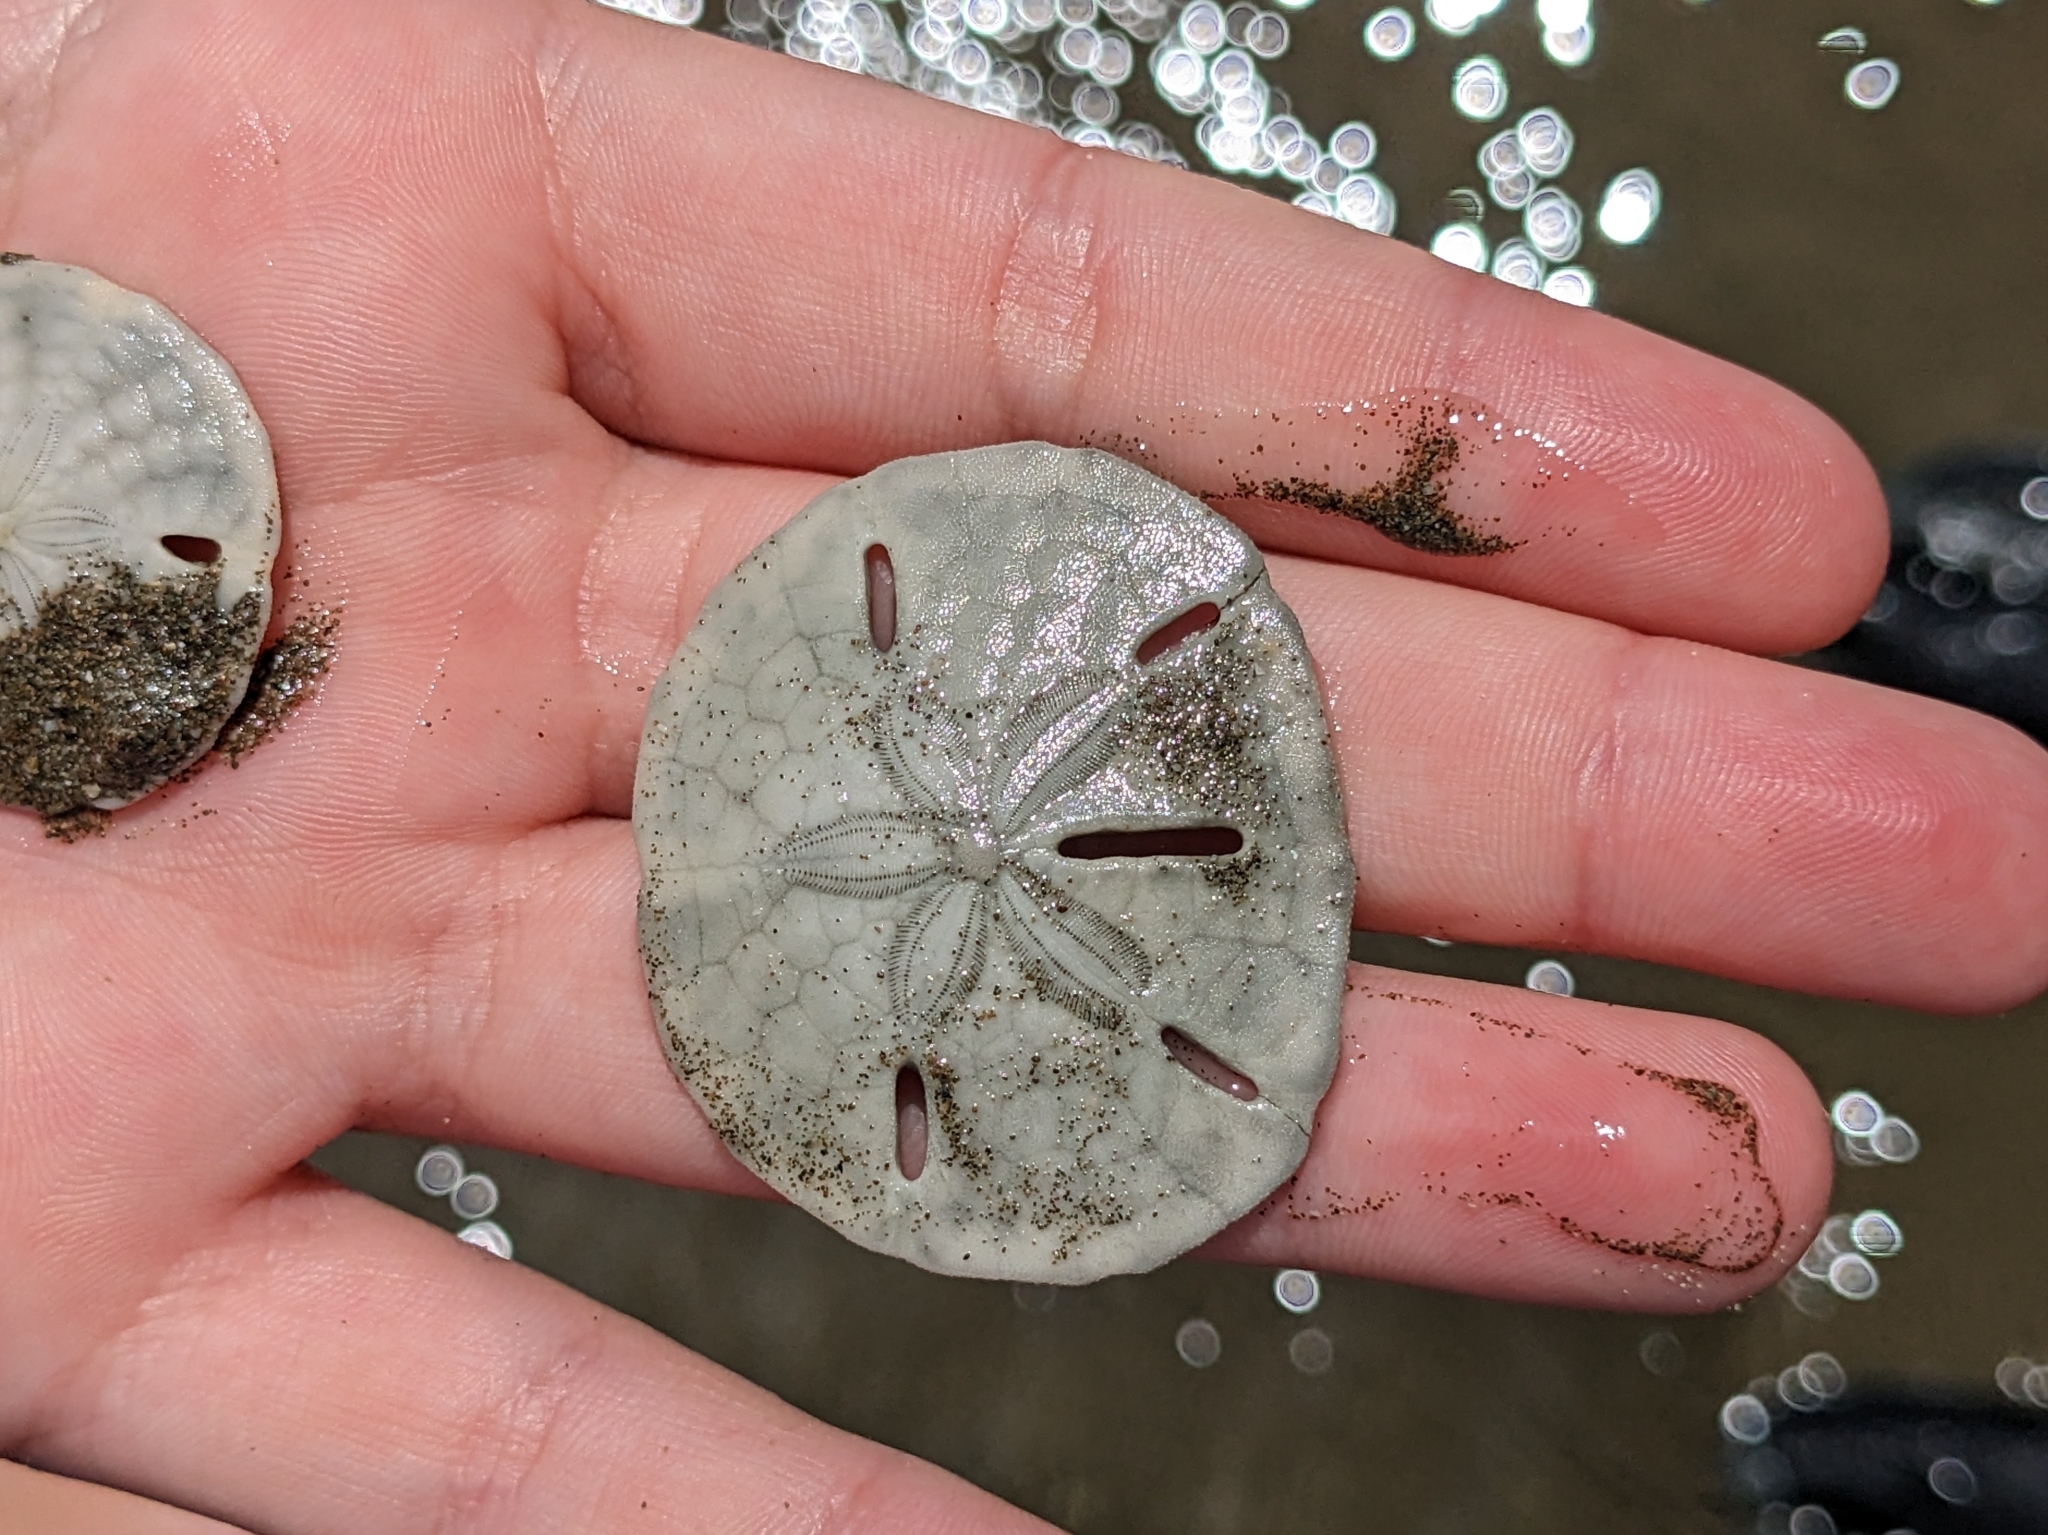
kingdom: Animalia
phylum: Echinodermata
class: Echinoidea
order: Echinolampadacea
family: Mellitidae
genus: Mellita
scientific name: Mellita quinquiesperforata
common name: Sand dollar
